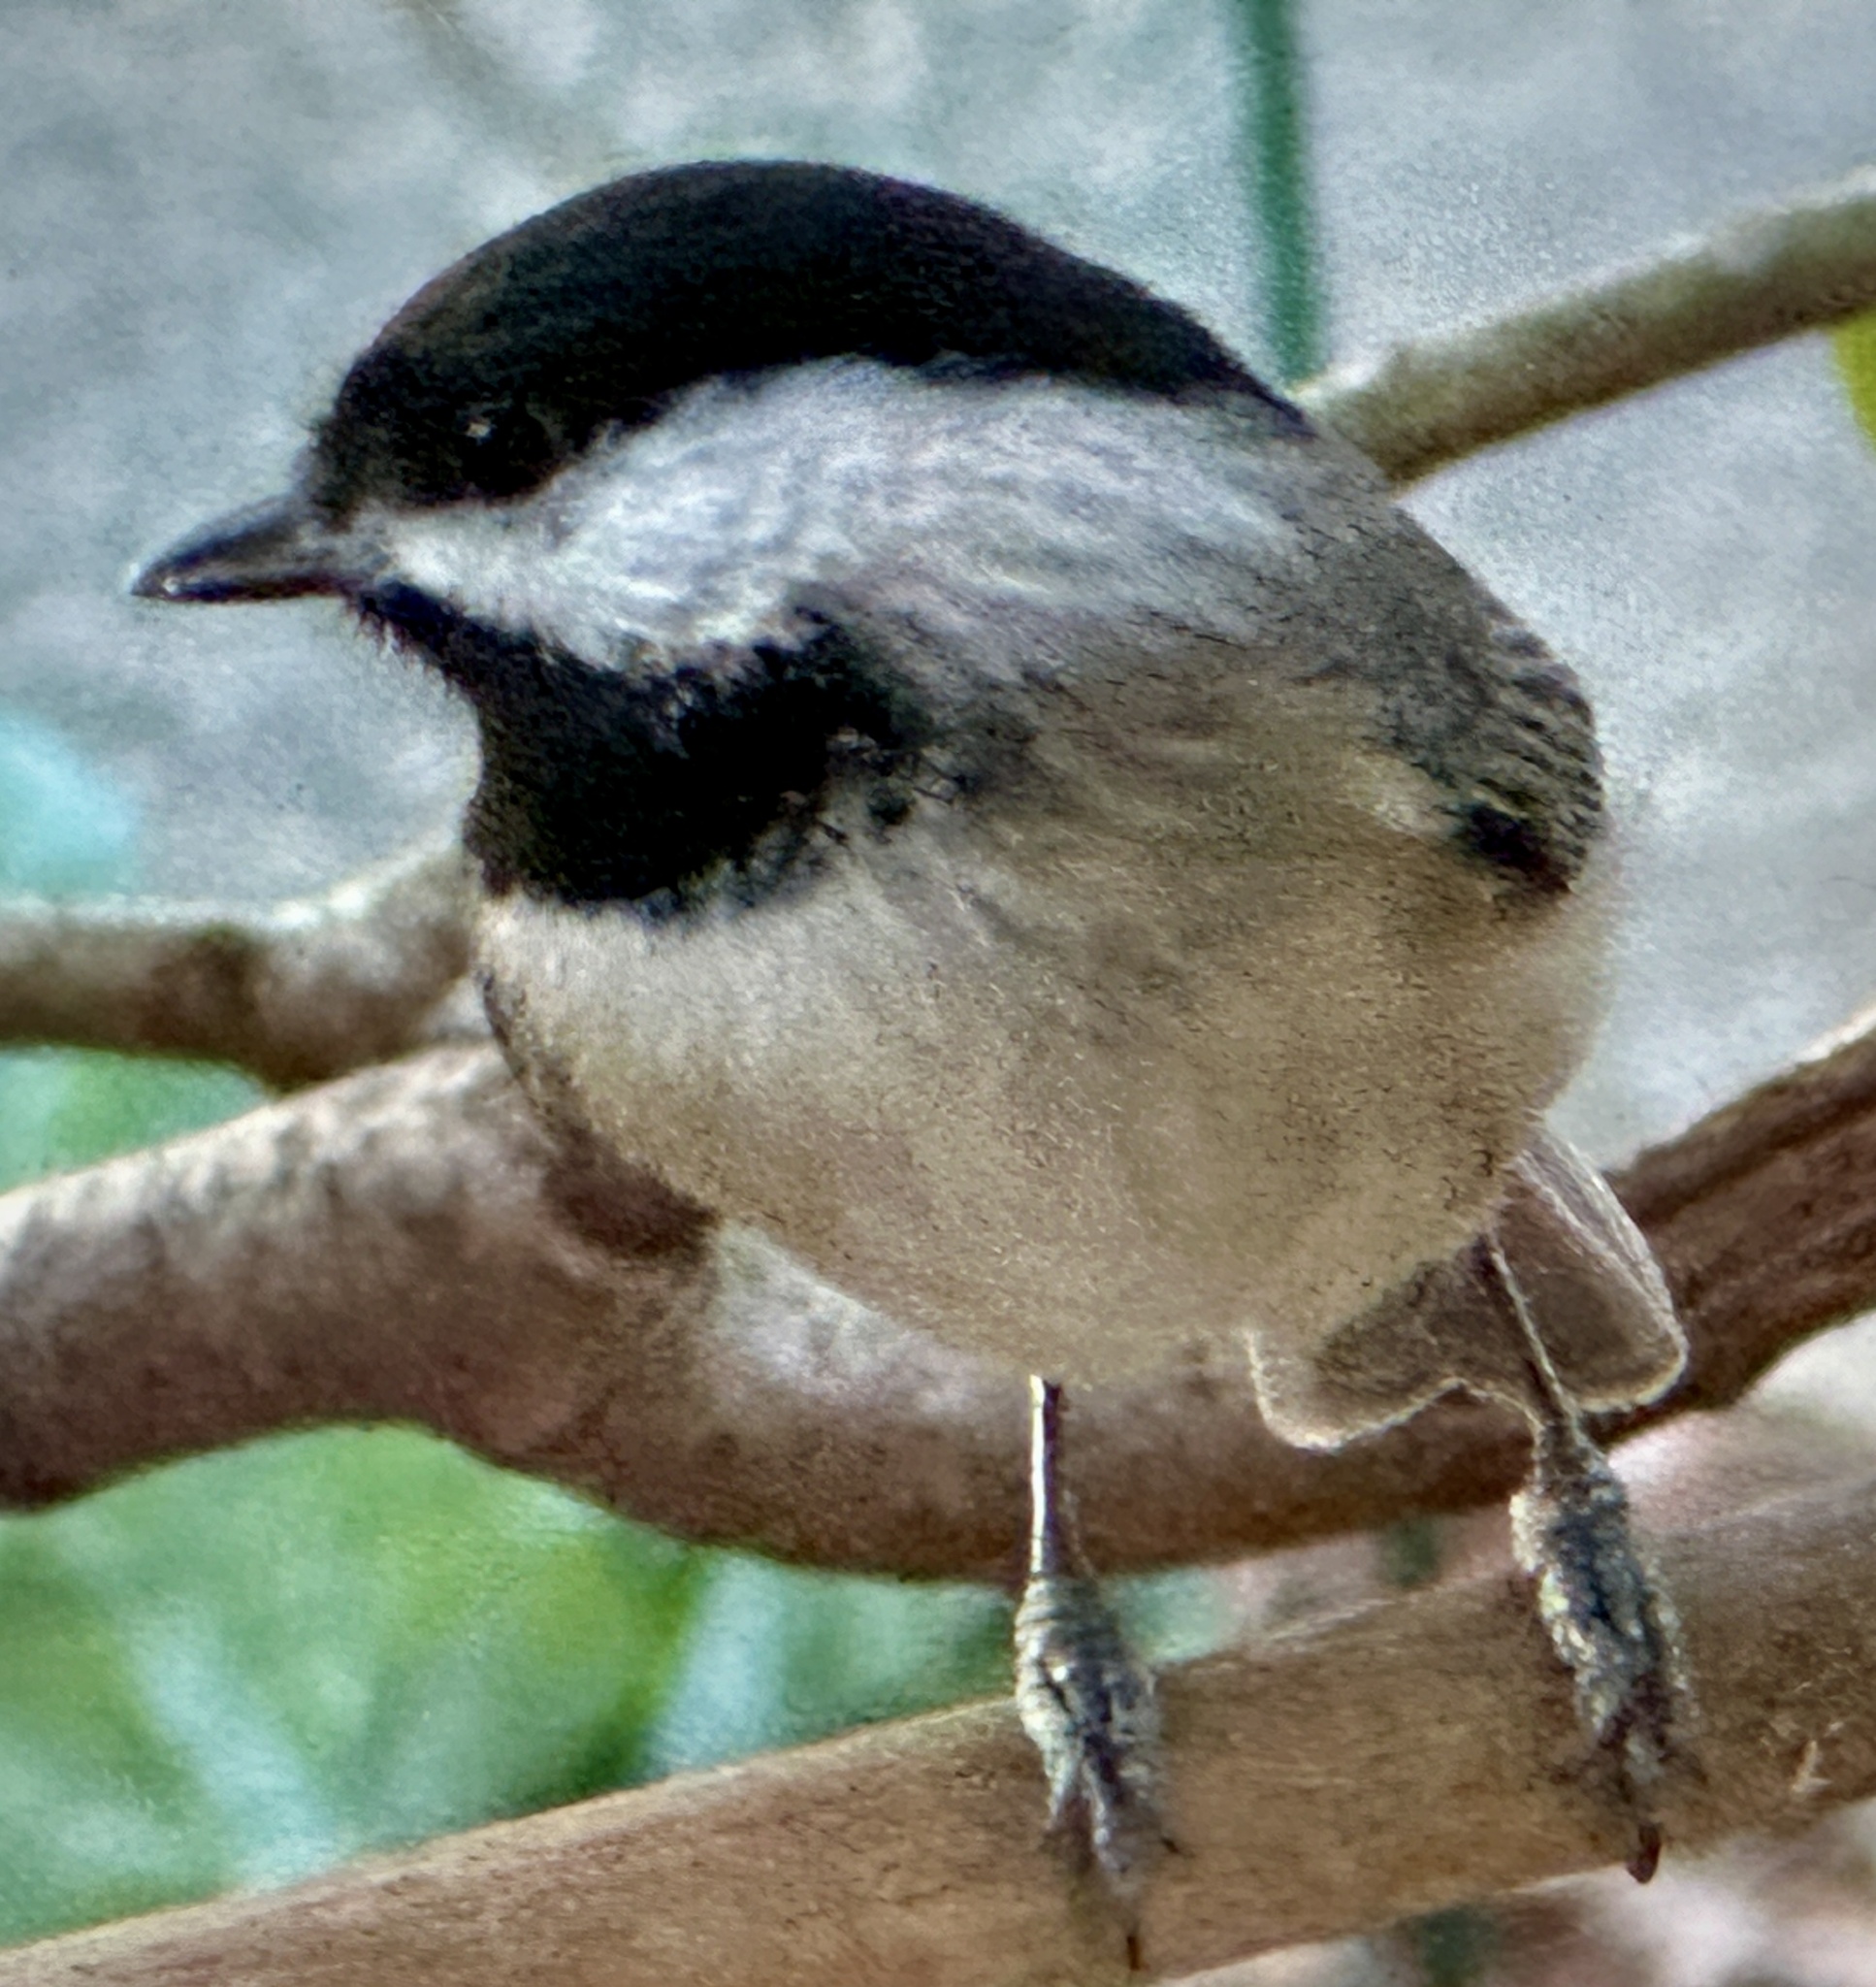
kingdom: Animalia
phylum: Chordata
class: Aves
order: Passeriformes
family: Paridae
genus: Poecile
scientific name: Poecile carolinensis
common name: Carolina chickadee
